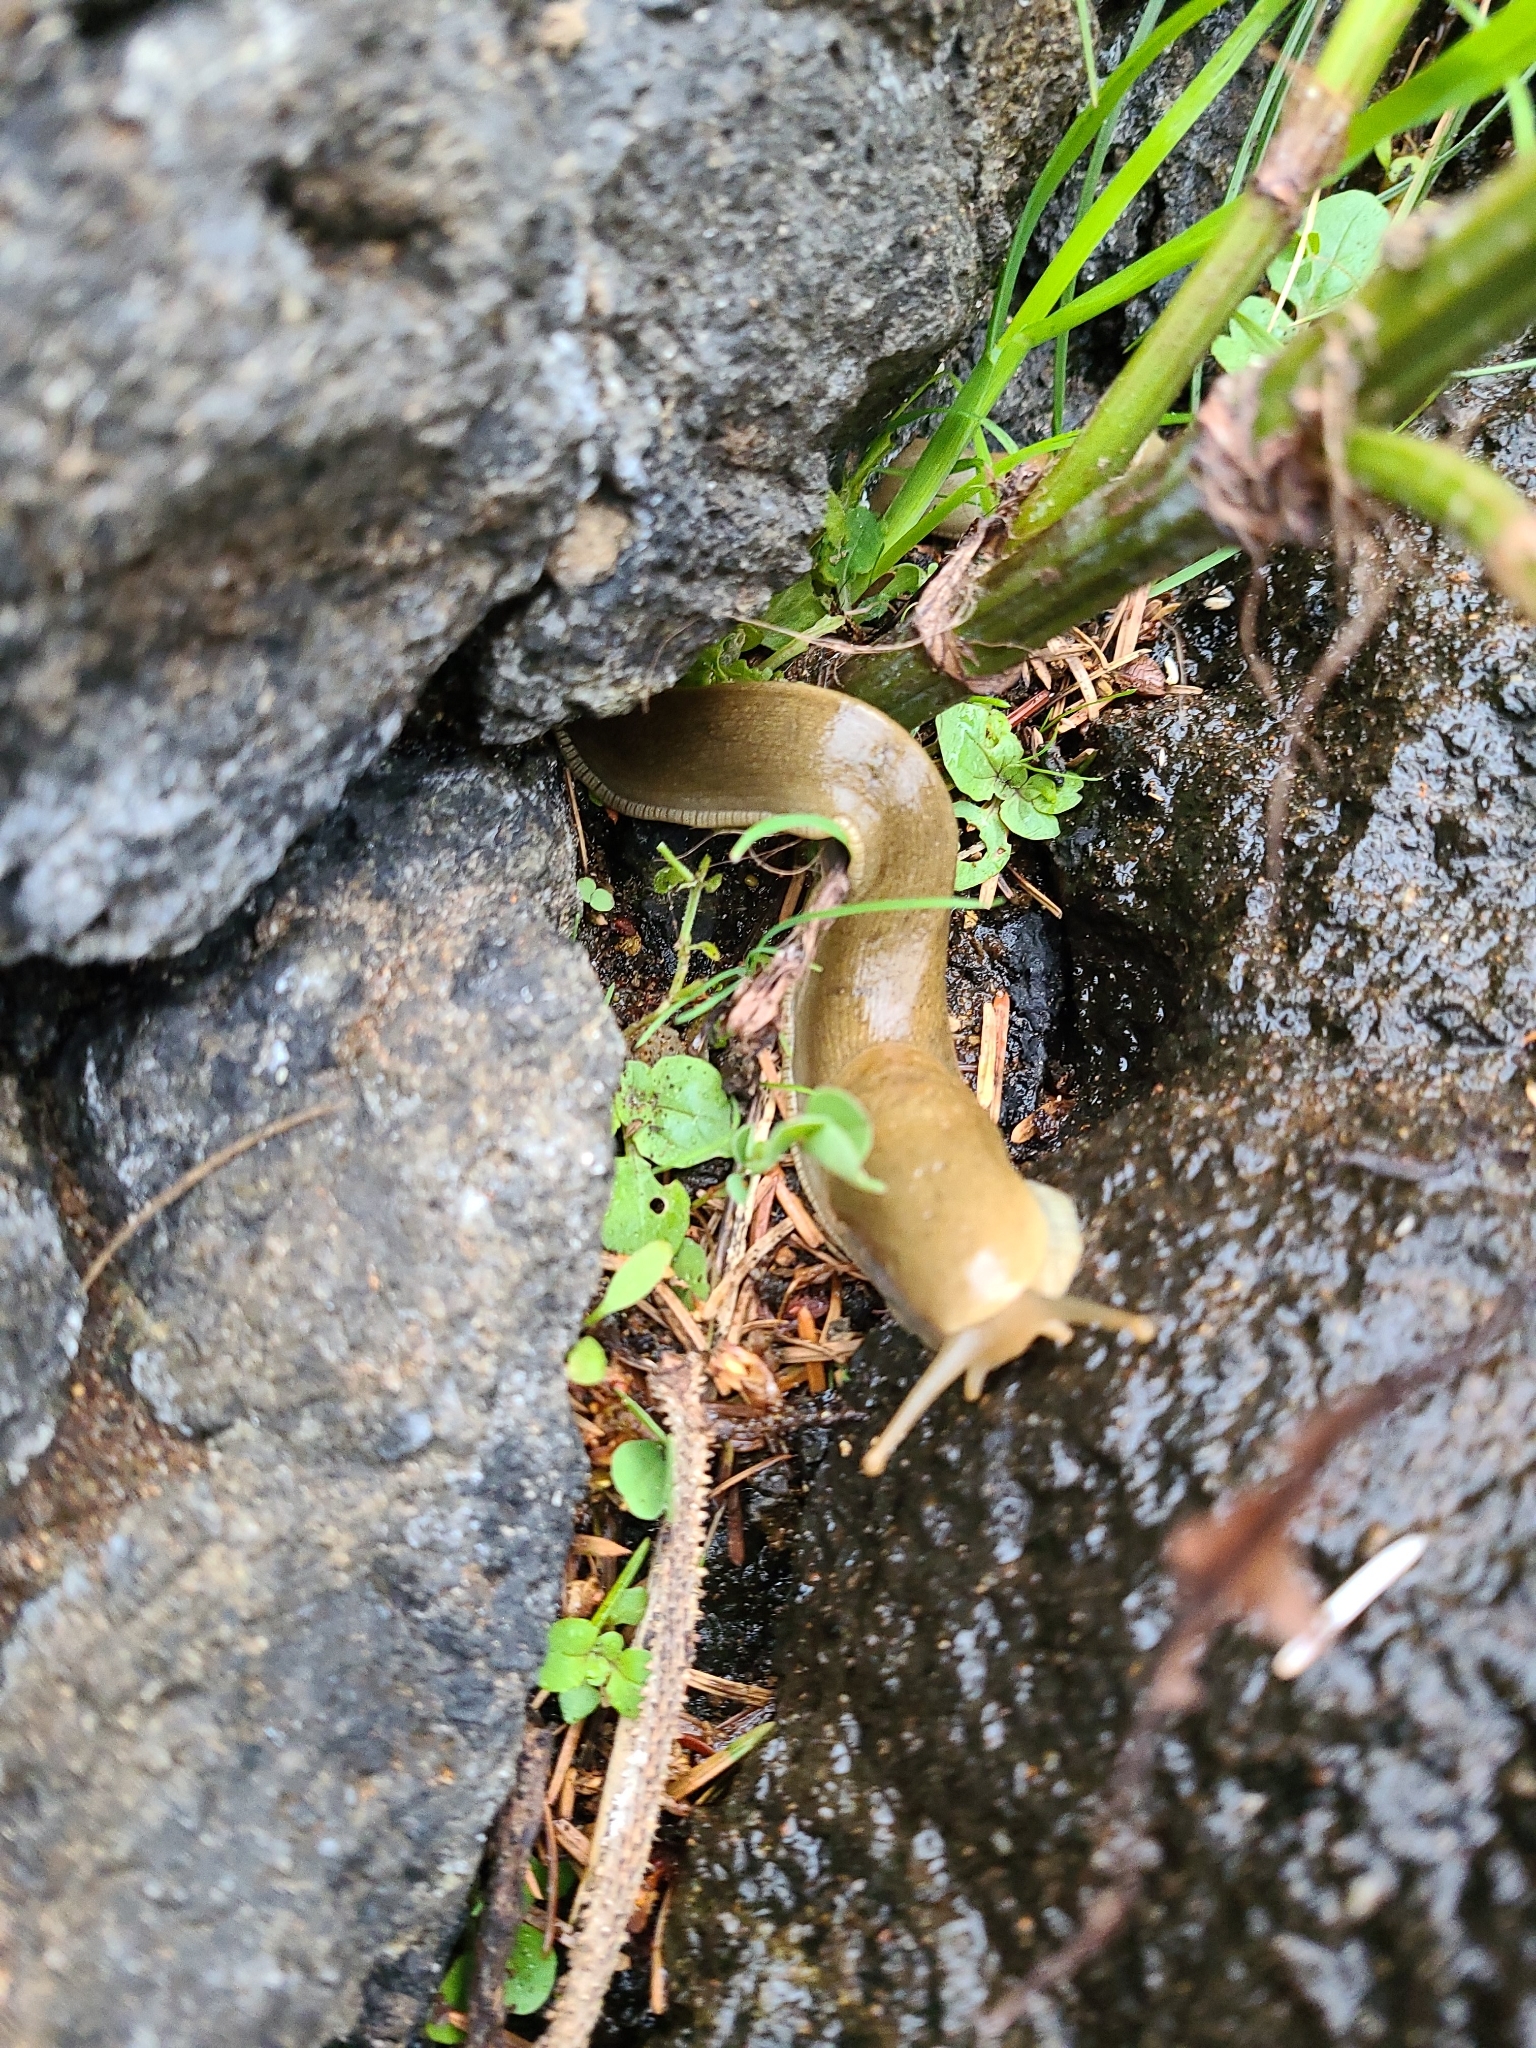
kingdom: Animalia
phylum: Mollusca
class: Gastropoda
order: Stylommatophora
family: Ariolimacidae
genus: Ariolimax
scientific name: Ariolimax columbianus
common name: Pacific banana slug
